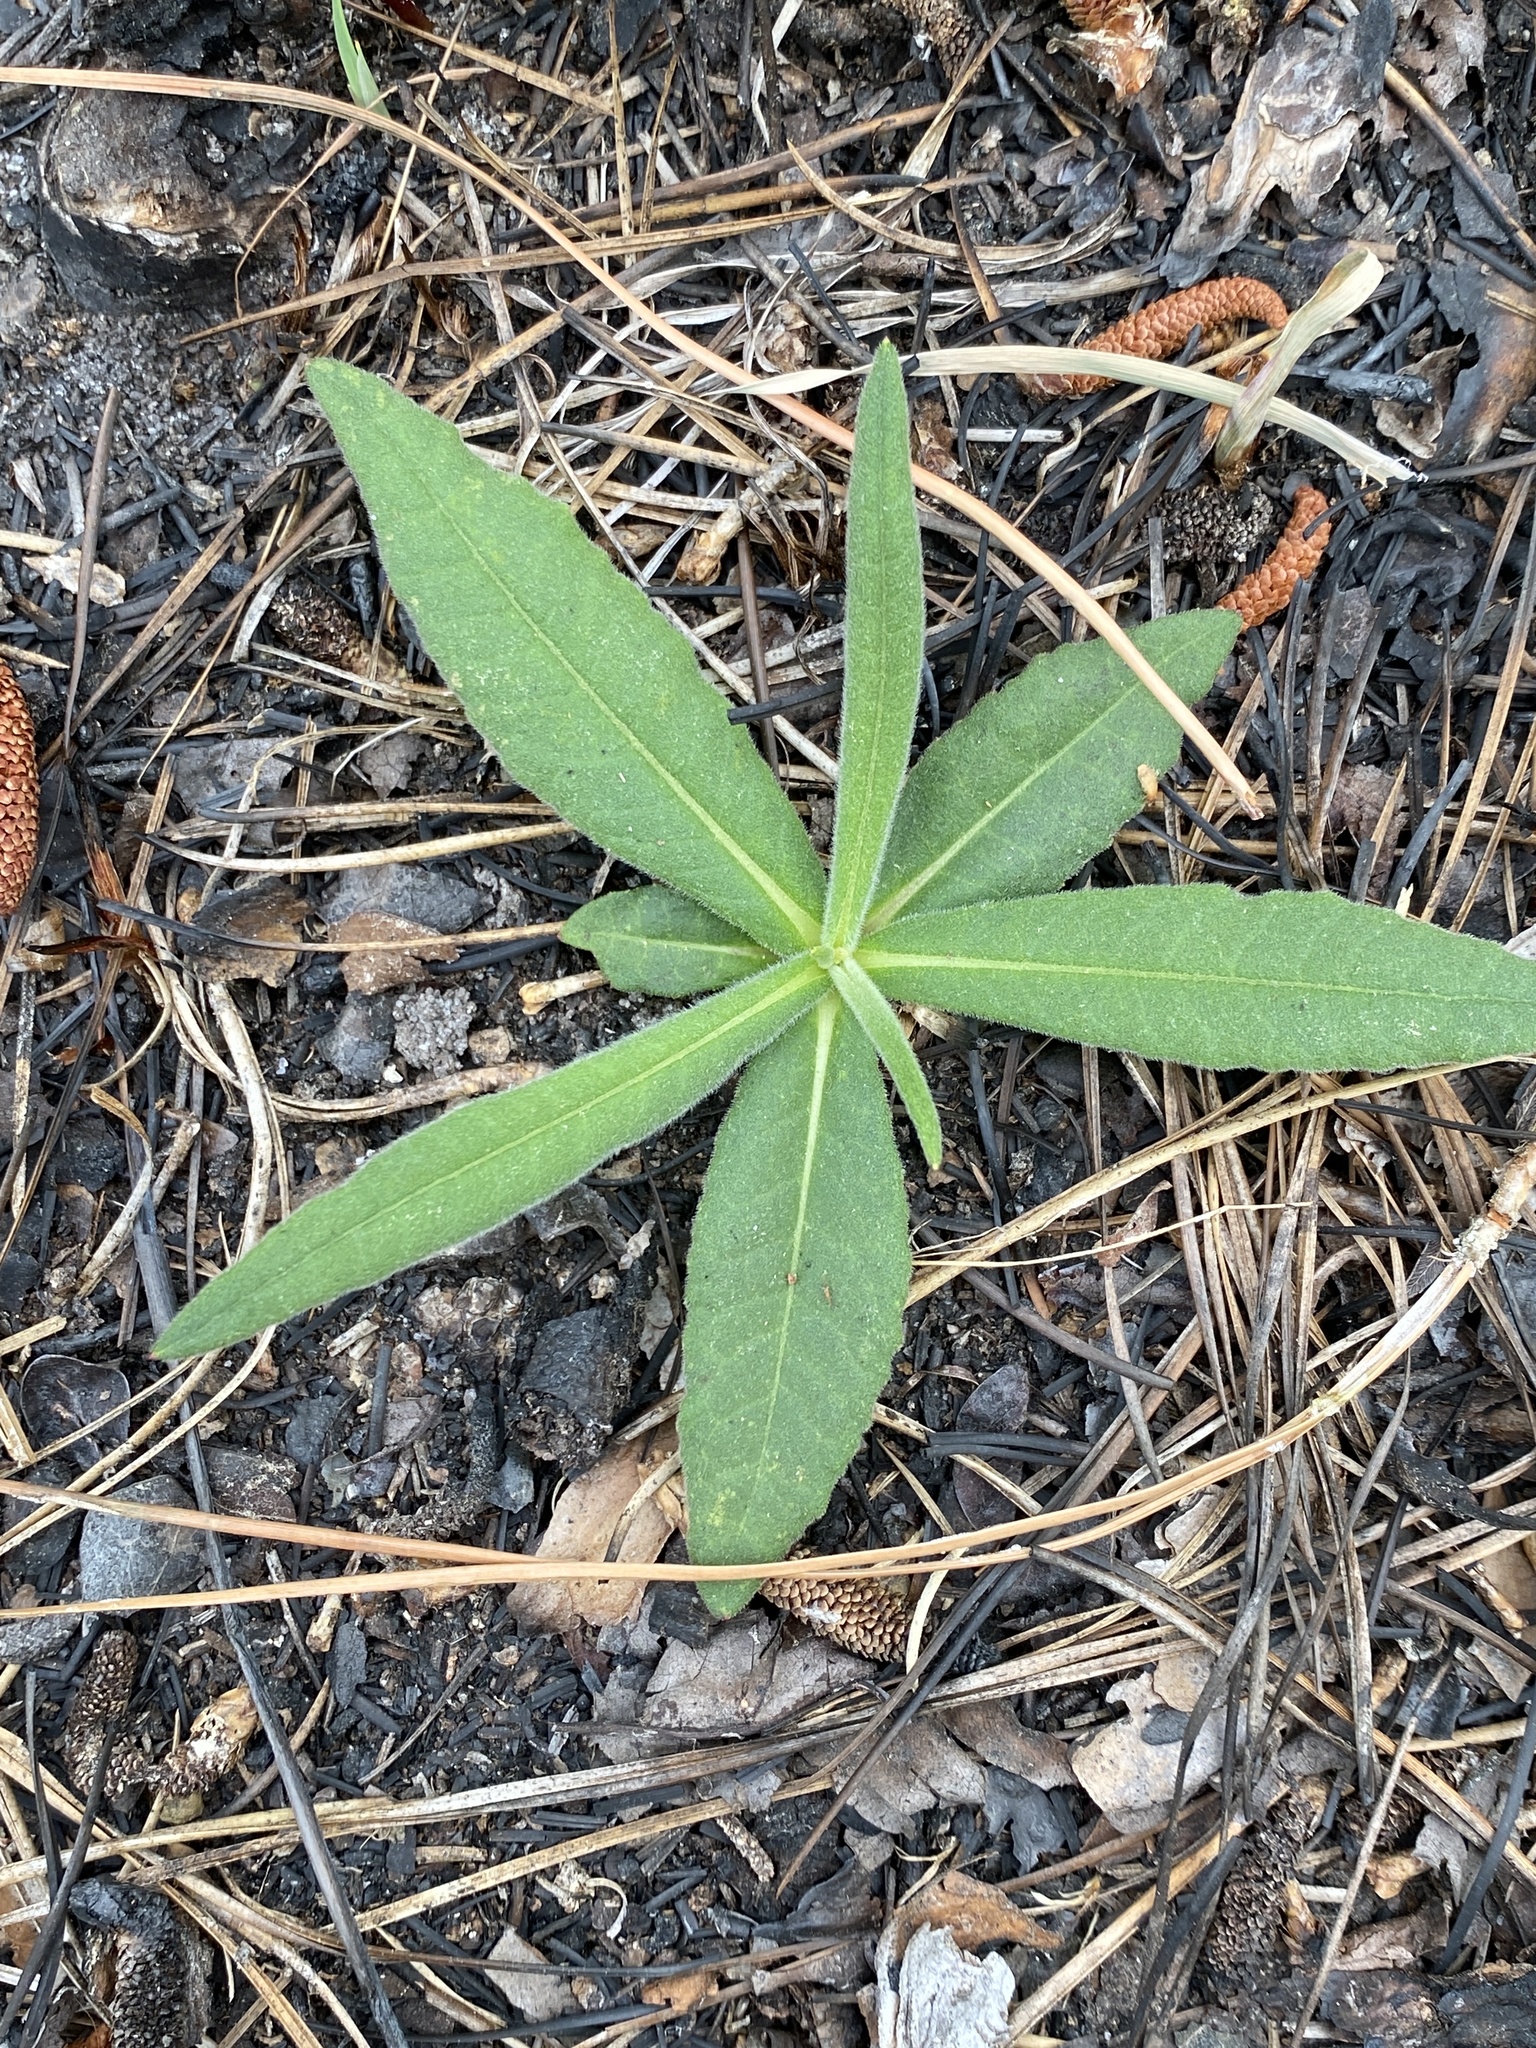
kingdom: Plantae
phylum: Tracheophyta
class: Magnoliopsida
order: Asterales
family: Asteraceae
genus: Vernonia
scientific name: Vernonia acaulis
